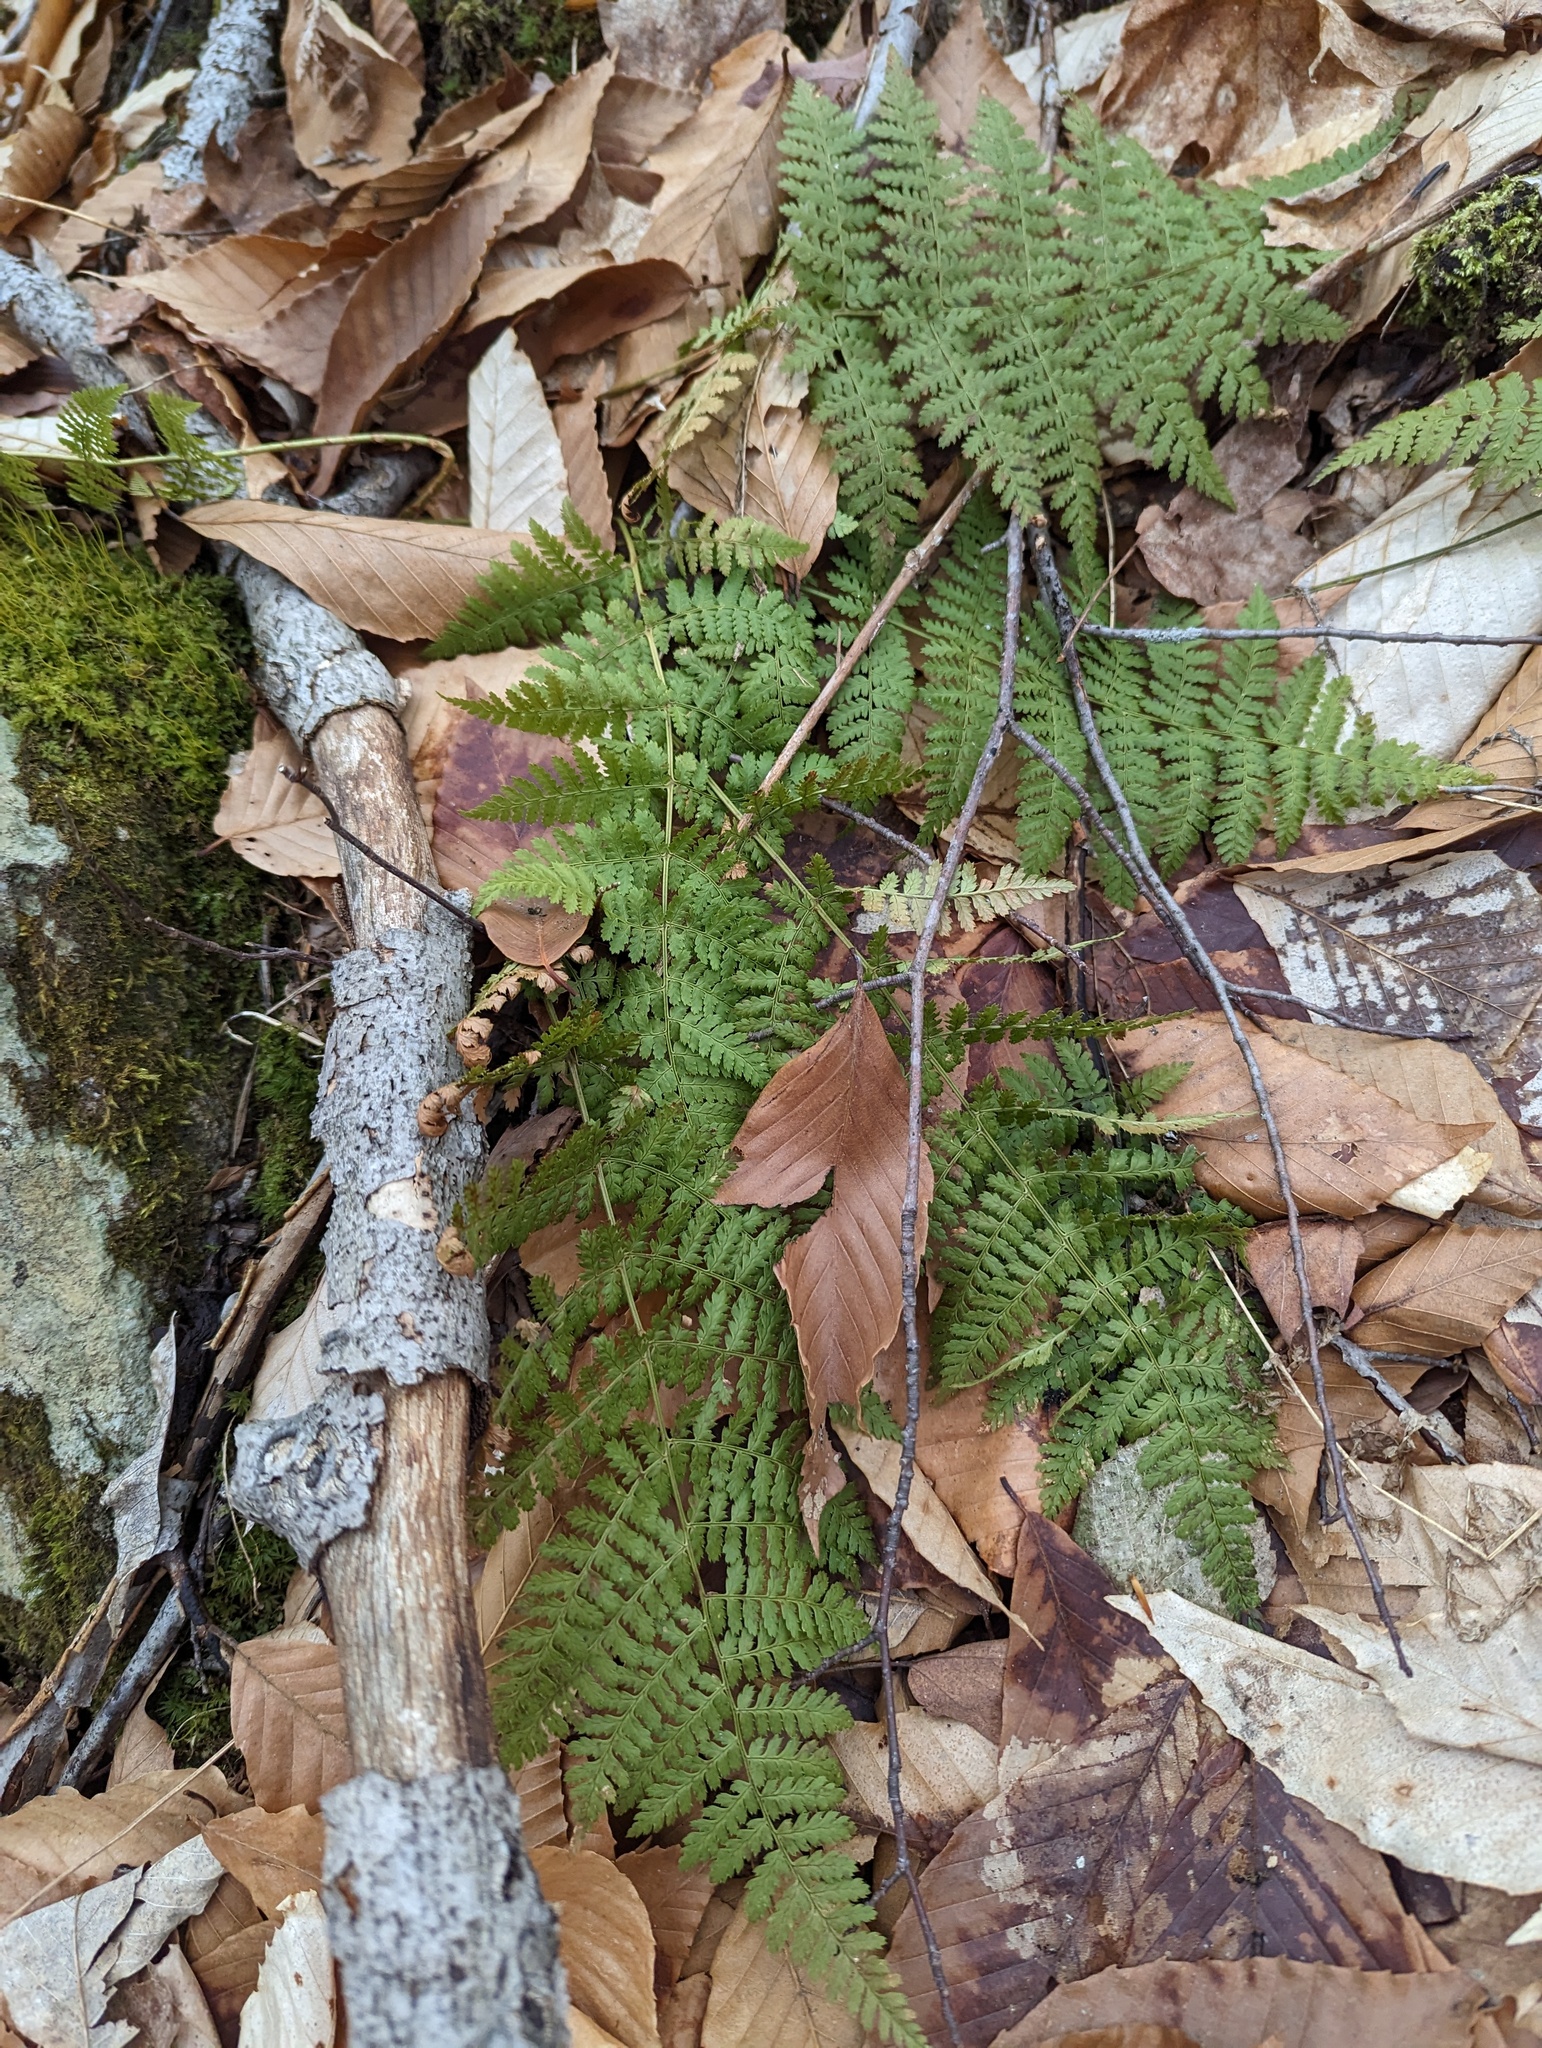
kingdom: Plantae
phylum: Tracheophyta
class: Polypodiopsida
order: Polypodiales
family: Dryopteridaceae
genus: Dryopteris
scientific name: Dryopteris intermedia
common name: Evergreen wood fern
